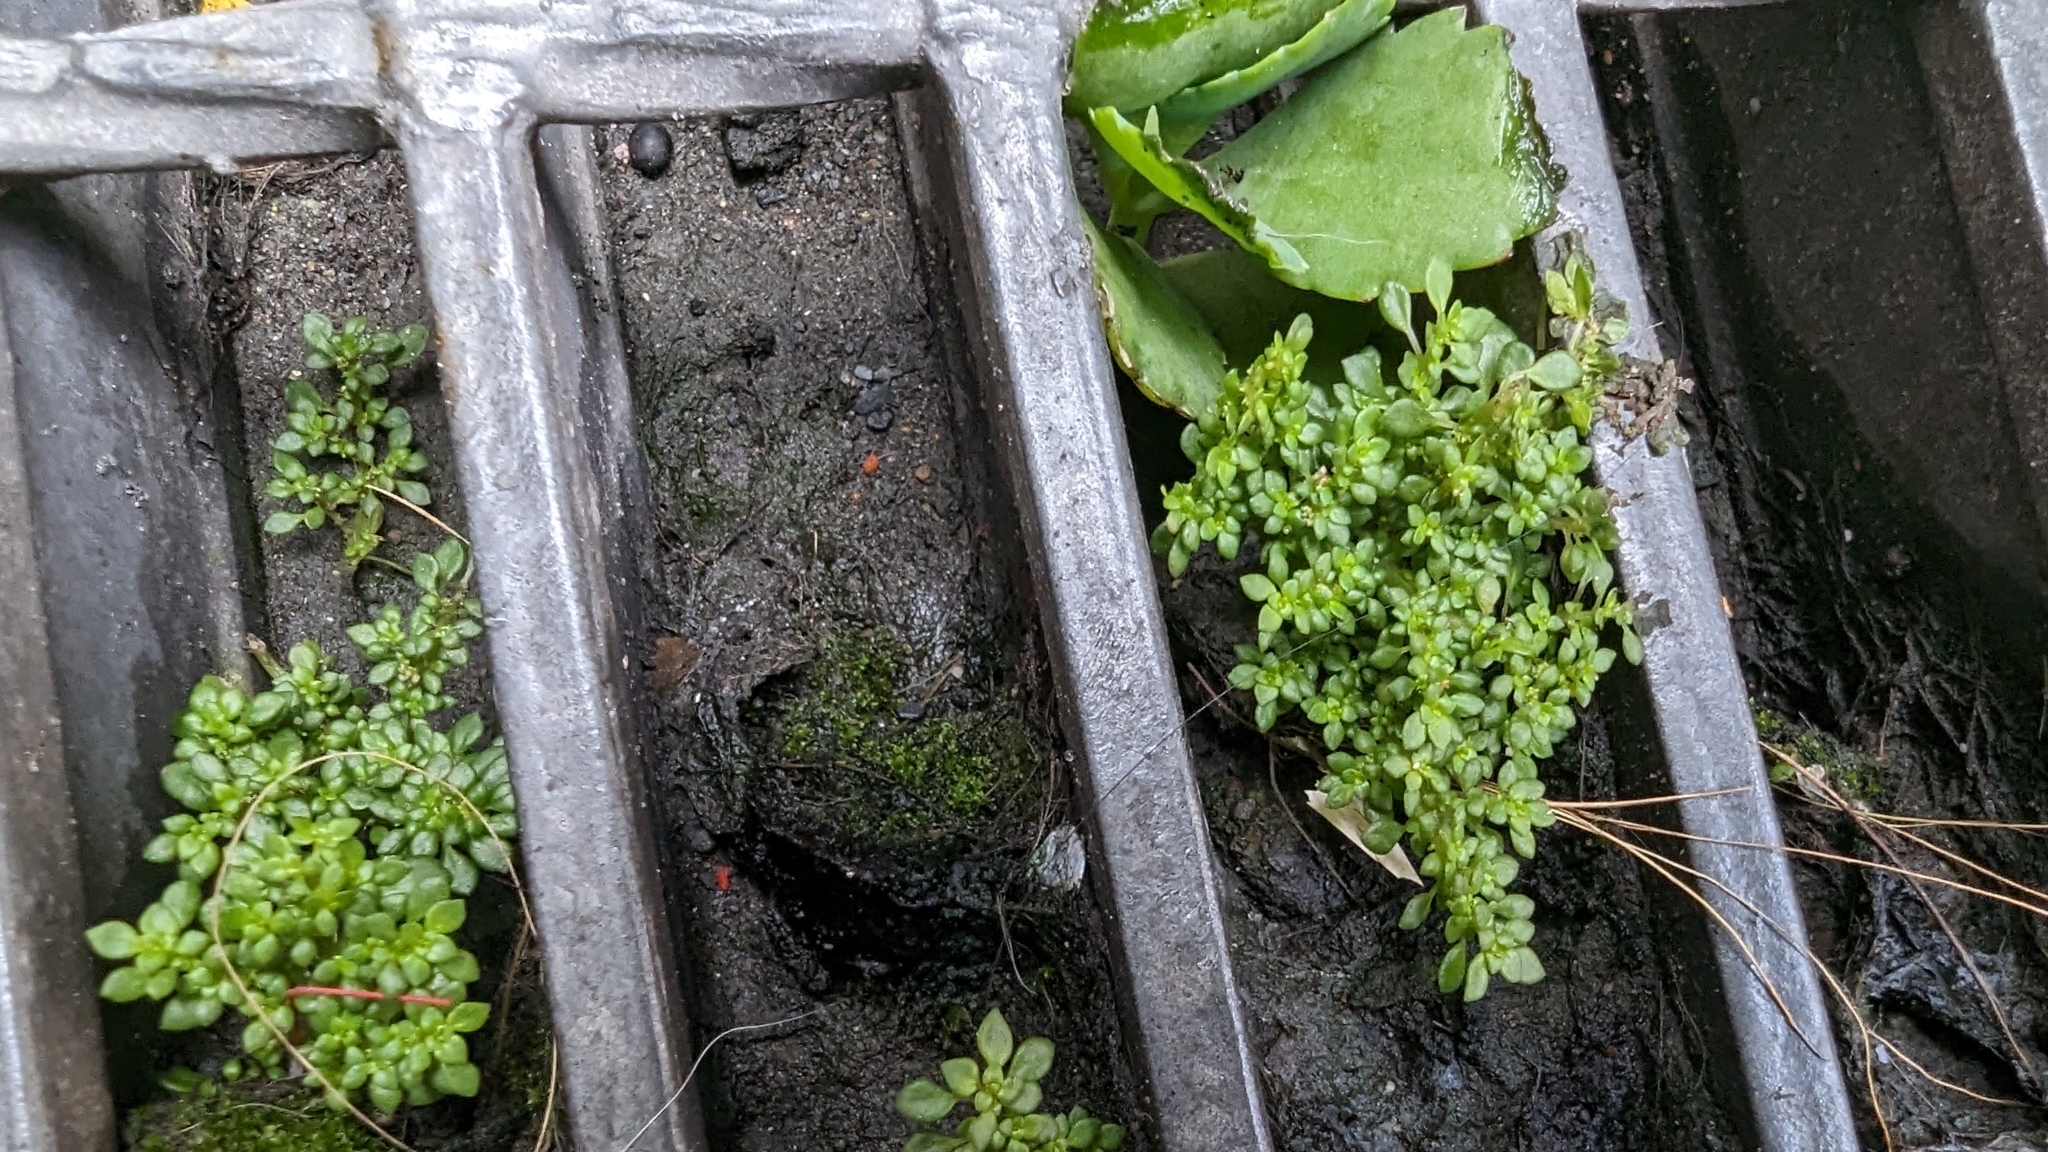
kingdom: Plantae
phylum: Tracheophyta
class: Magnoliopsida
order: Rosales
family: Urticaceae
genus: Pilea
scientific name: Pilea microphylla
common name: Artillery-plant
